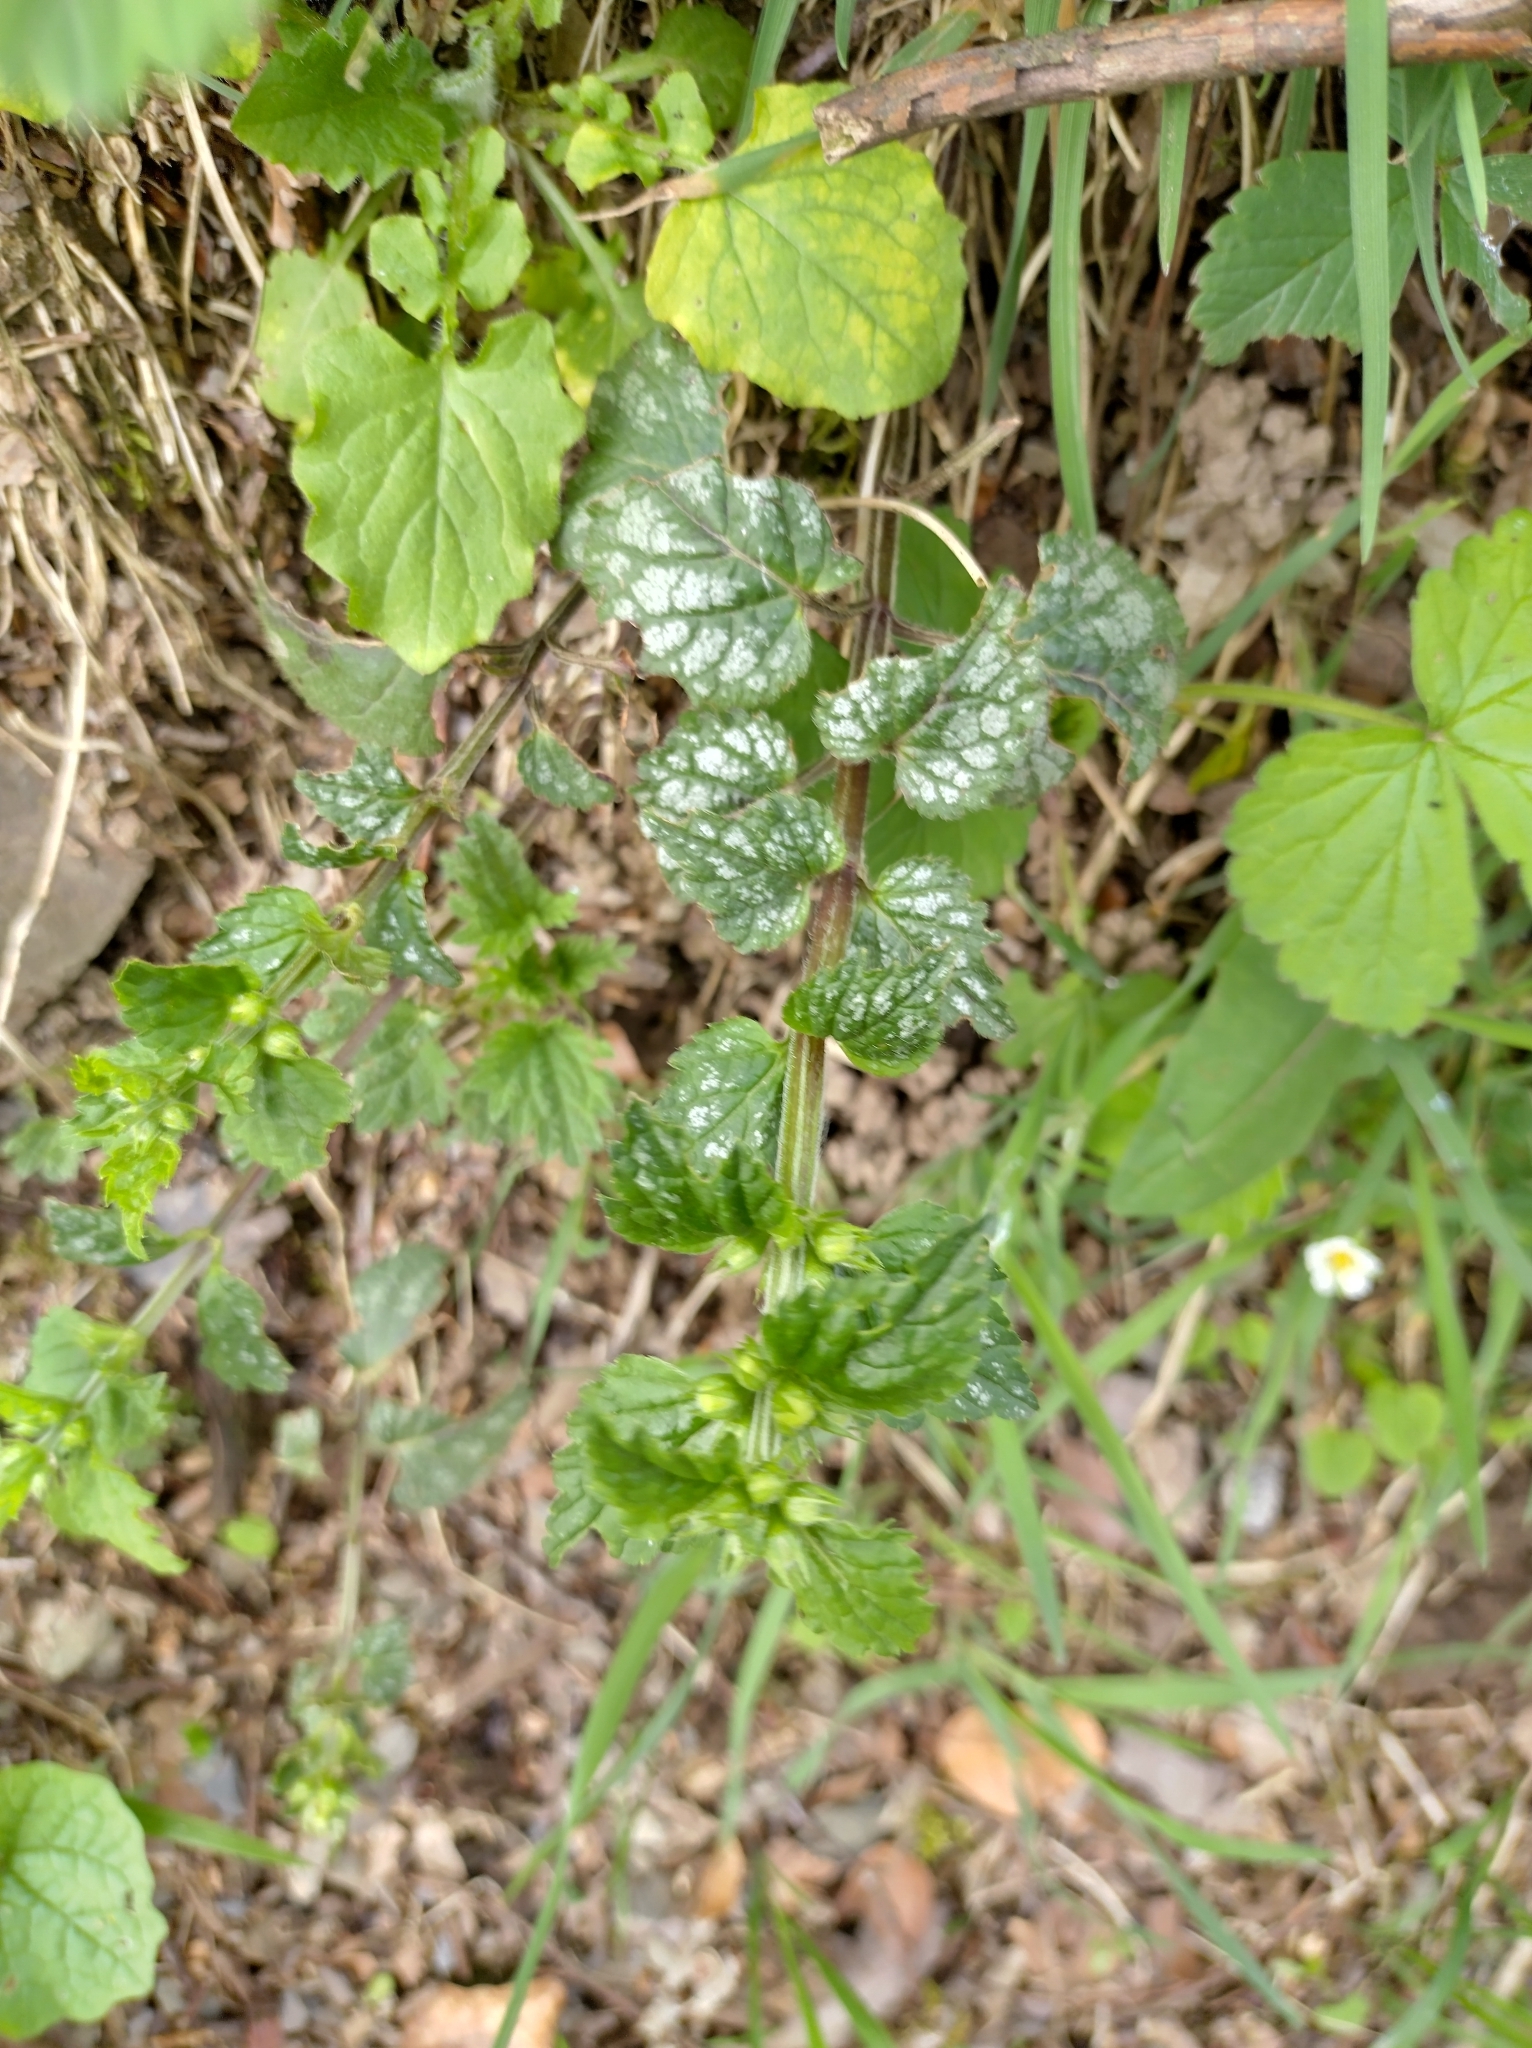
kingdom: Plantae
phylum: Tracheophyta
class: Magnoliopsida
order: Lamiales
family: Lamiaceae
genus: Lamium
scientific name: Lamium galeobdolon
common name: Yellow archangel
